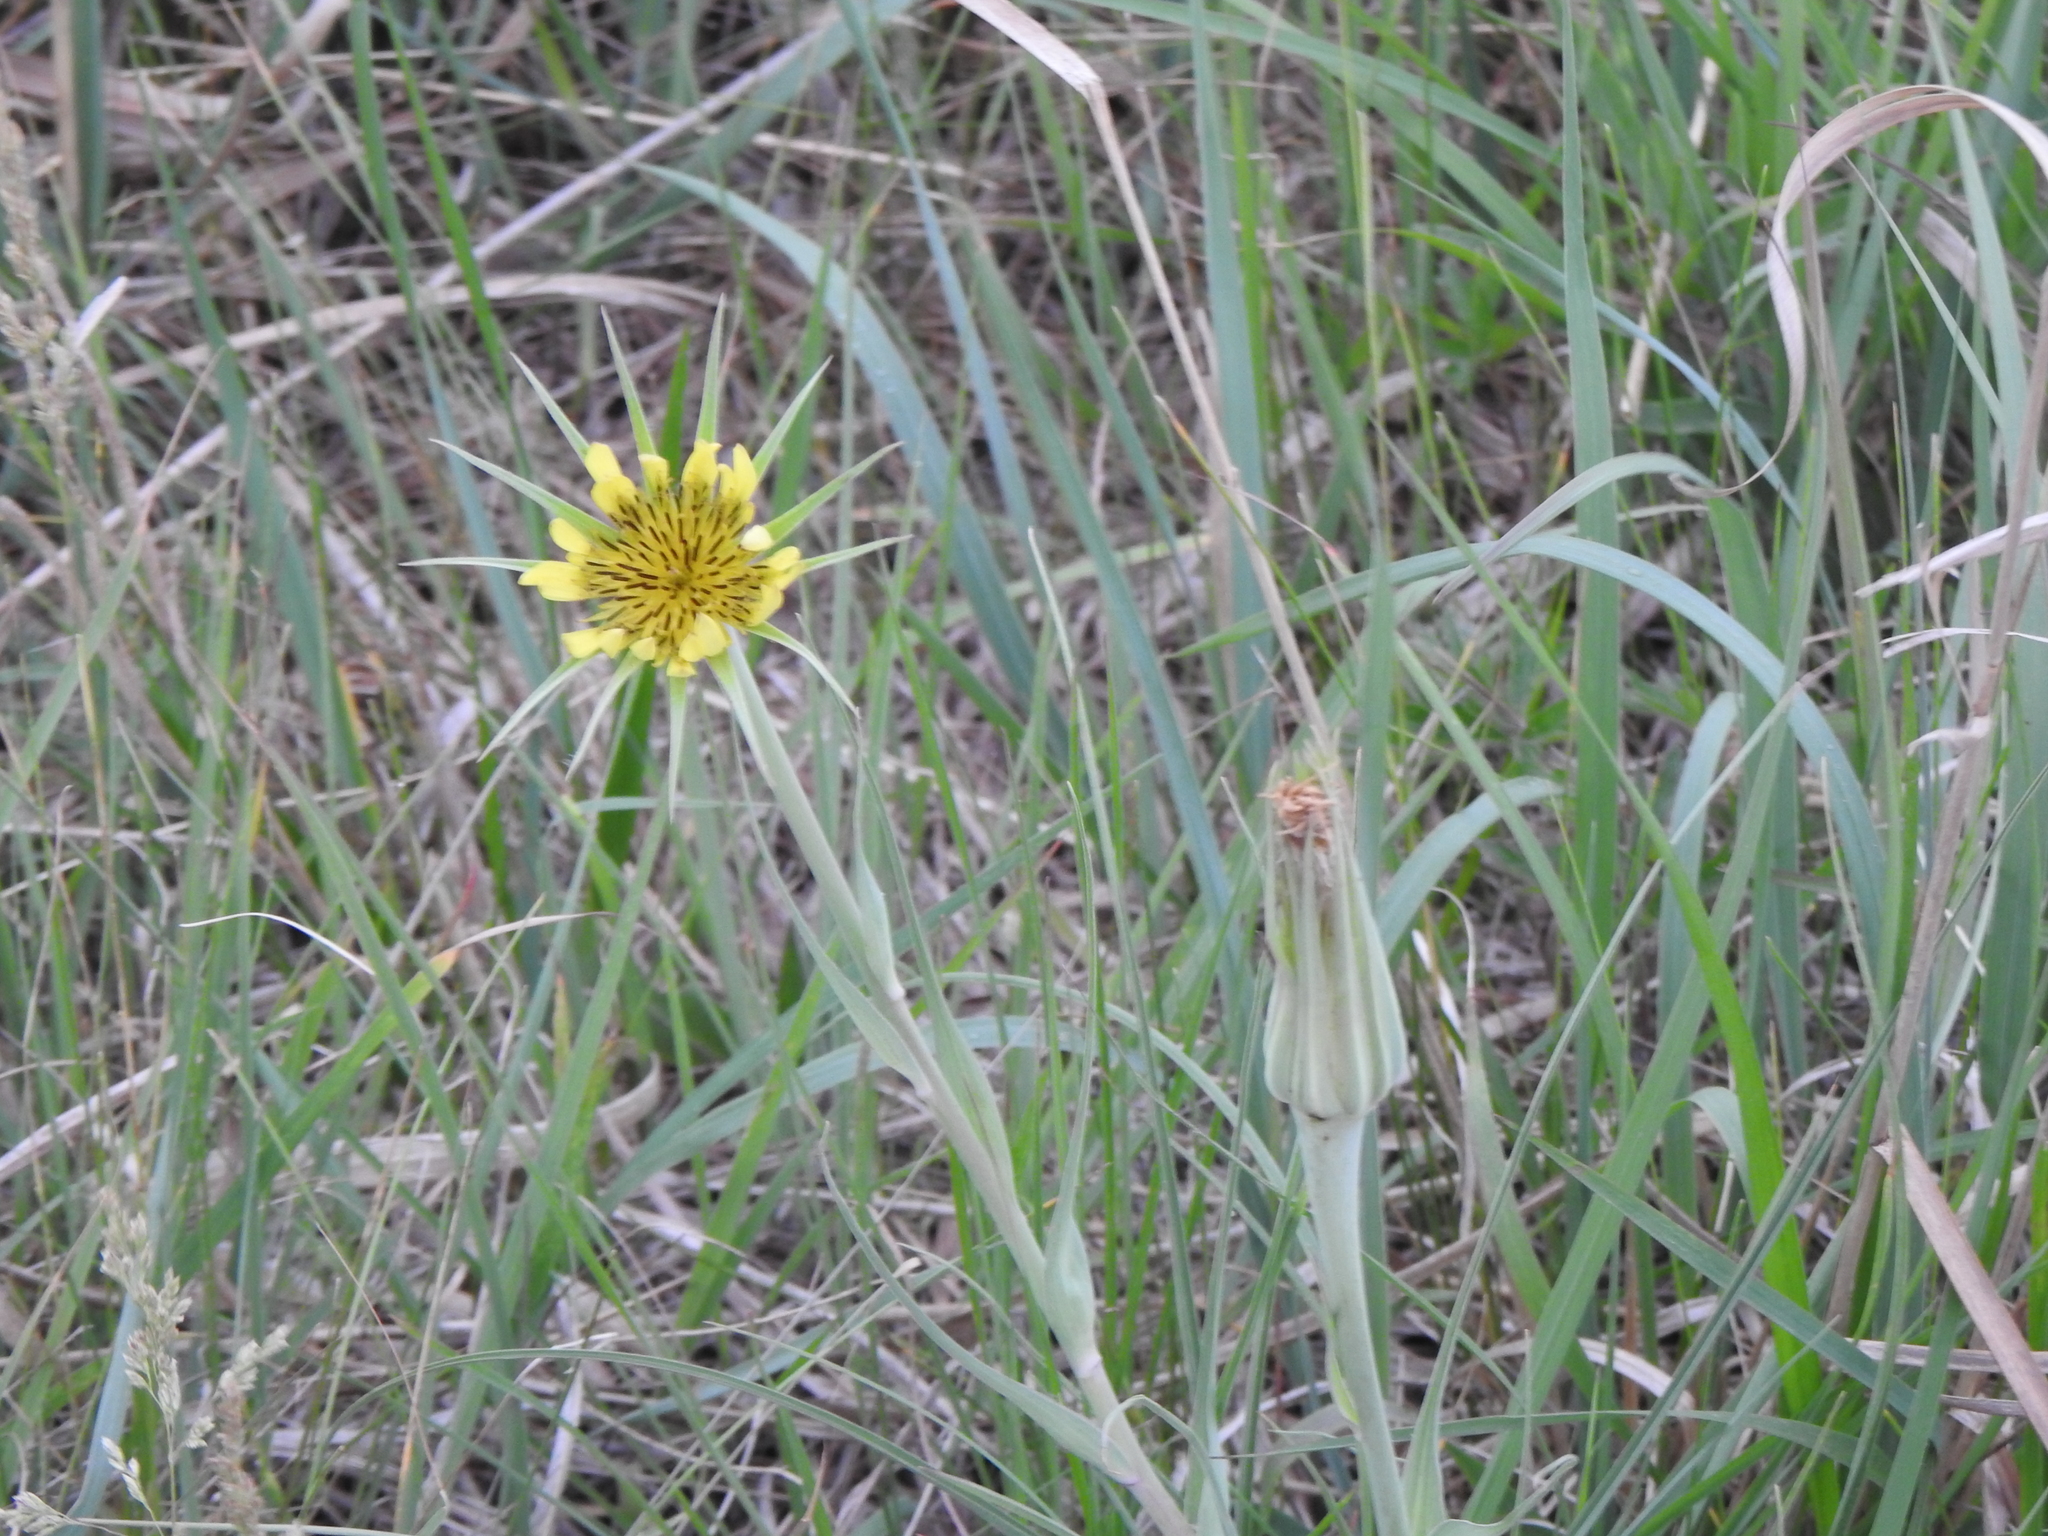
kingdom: Plantae
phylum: Tracheophyta
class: Magnoliopsida
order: Asterales
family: Asteraceae
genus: Tragopogon
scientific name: Tragopogon dubius
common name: Yellow salsify
